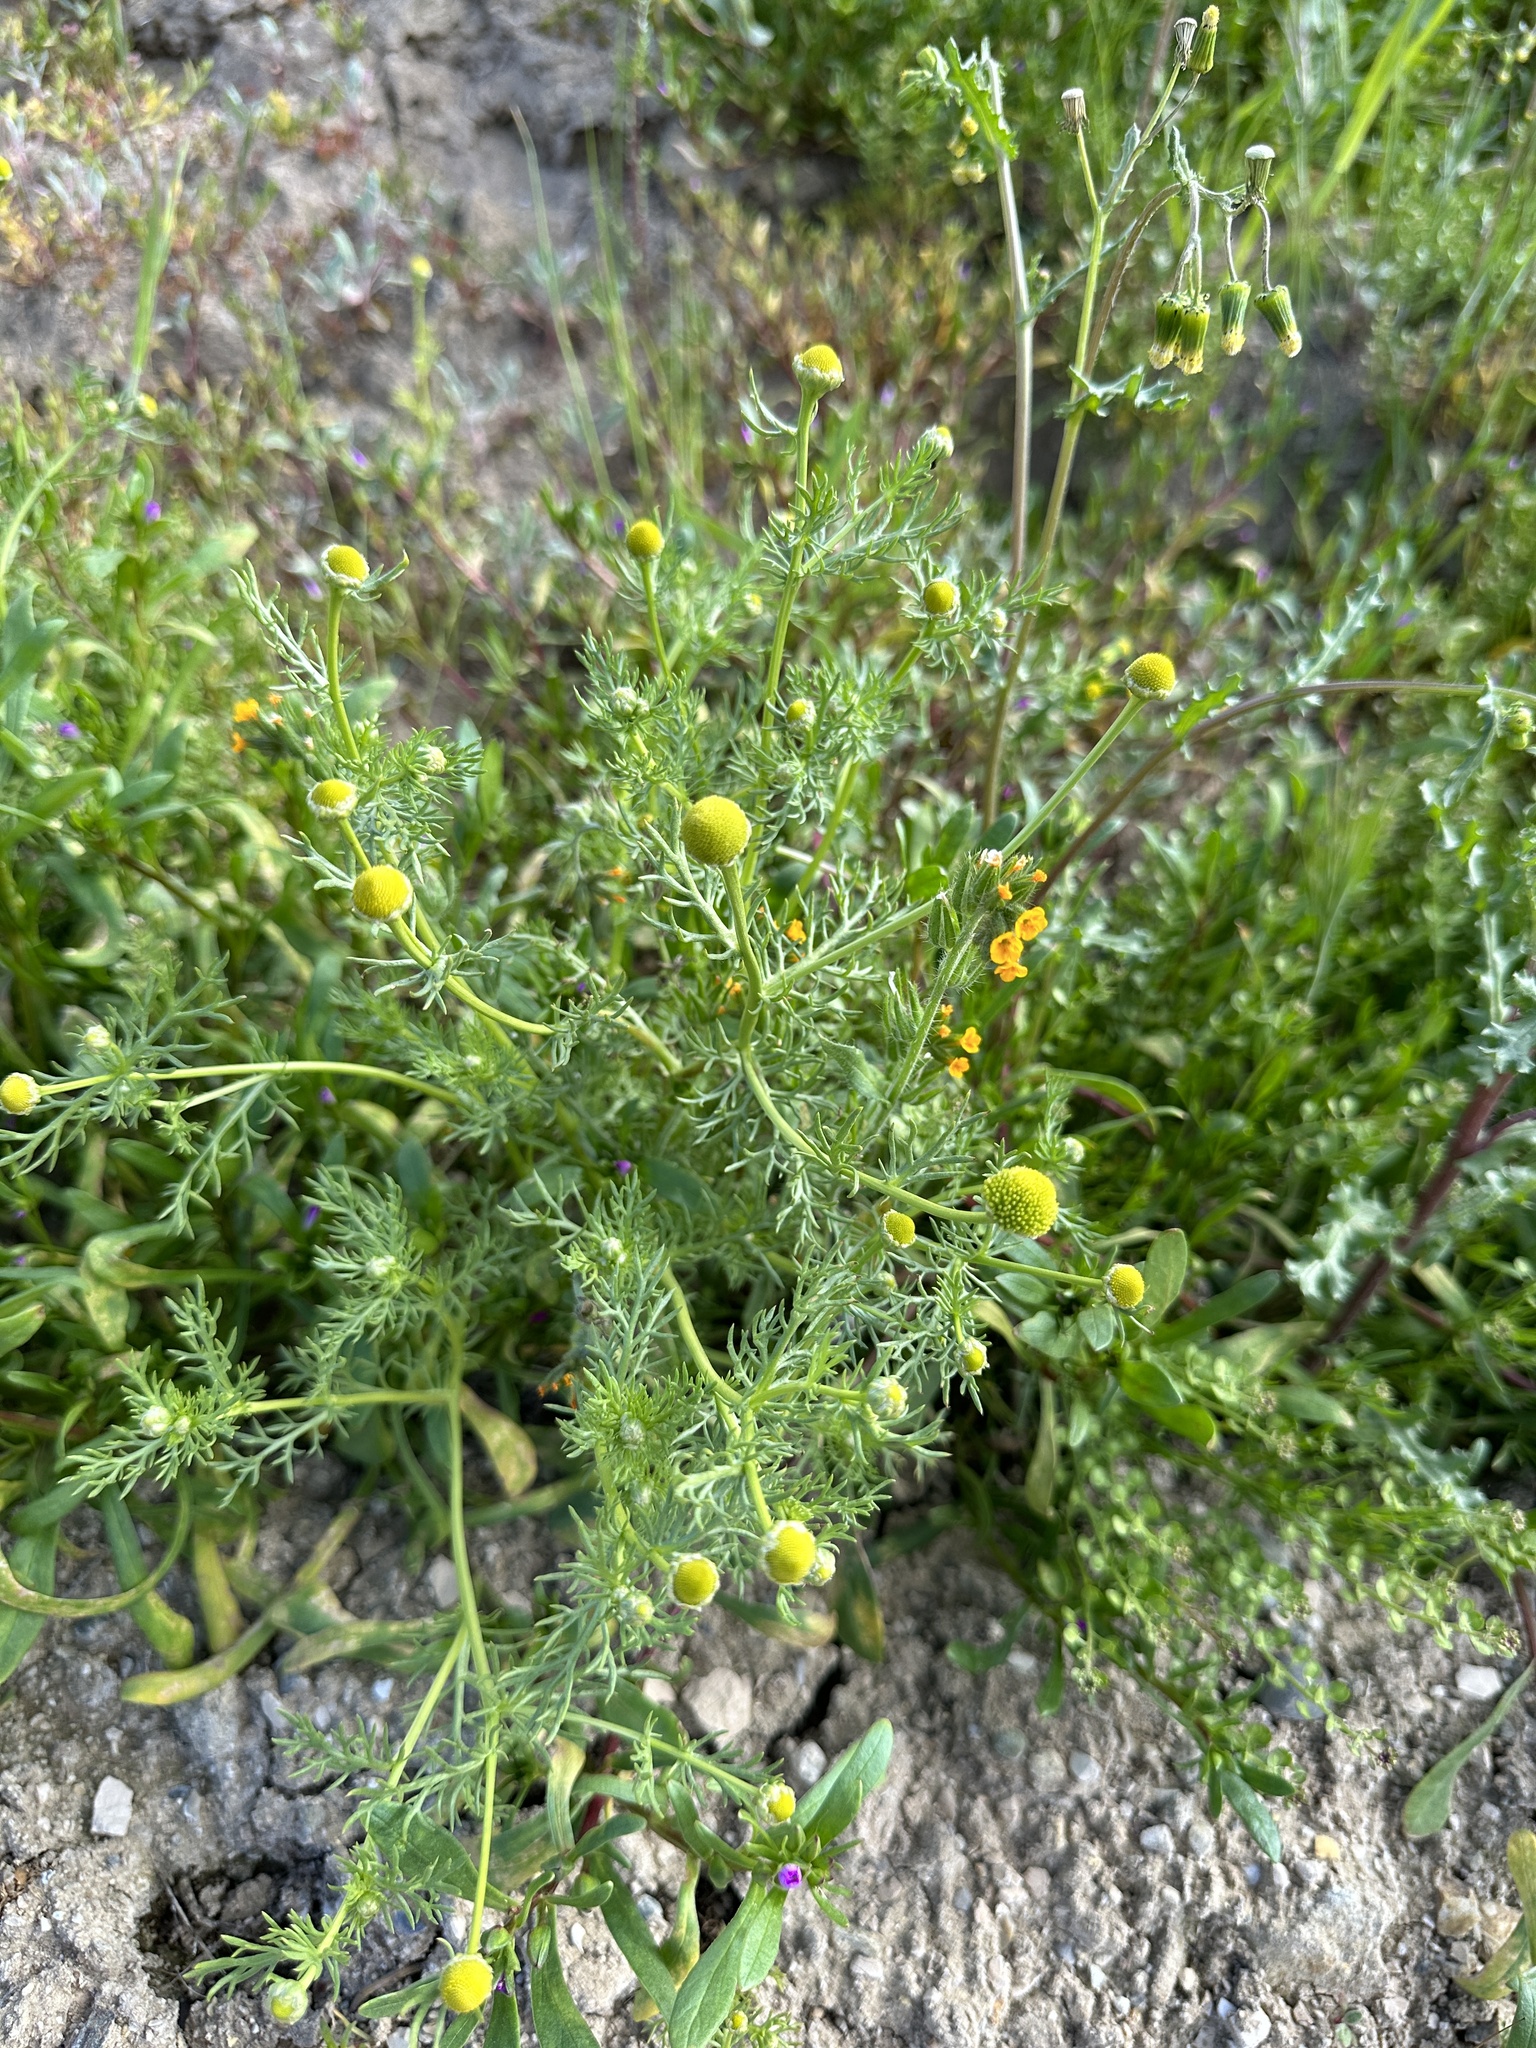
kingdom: Plantae
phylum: Tracheophyta
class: Magnoliopsida
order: Asterales
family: Asteraceae
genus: Matricaria
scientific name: Matricaria discoidea
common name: Disc mayweed
